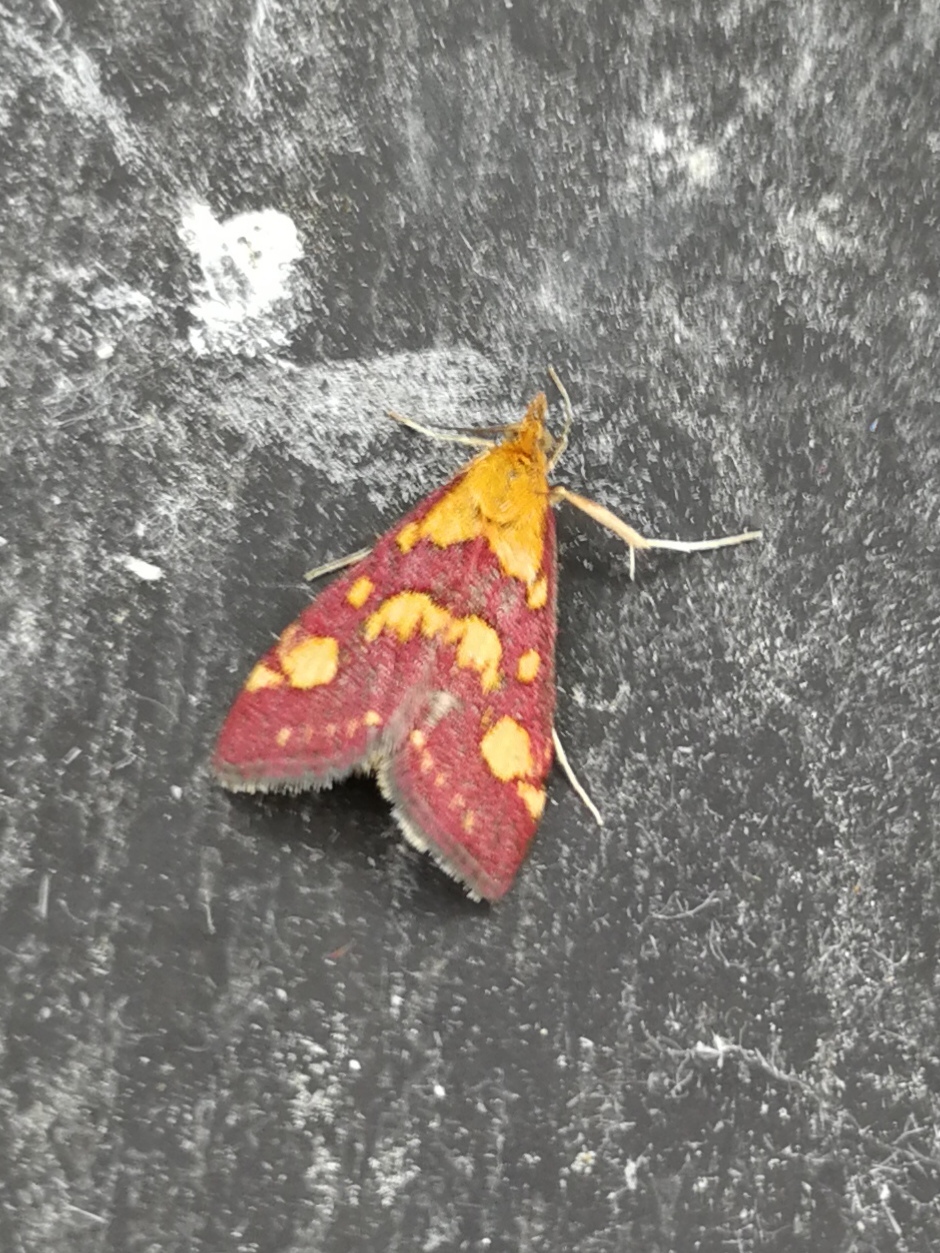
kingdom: Animalia
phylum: Arthropoda
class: Insecta
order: Lepidoptera
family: Crambidae
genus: Pyrausta
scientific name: Pyrausta purpuralis
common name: Common purple & gold
